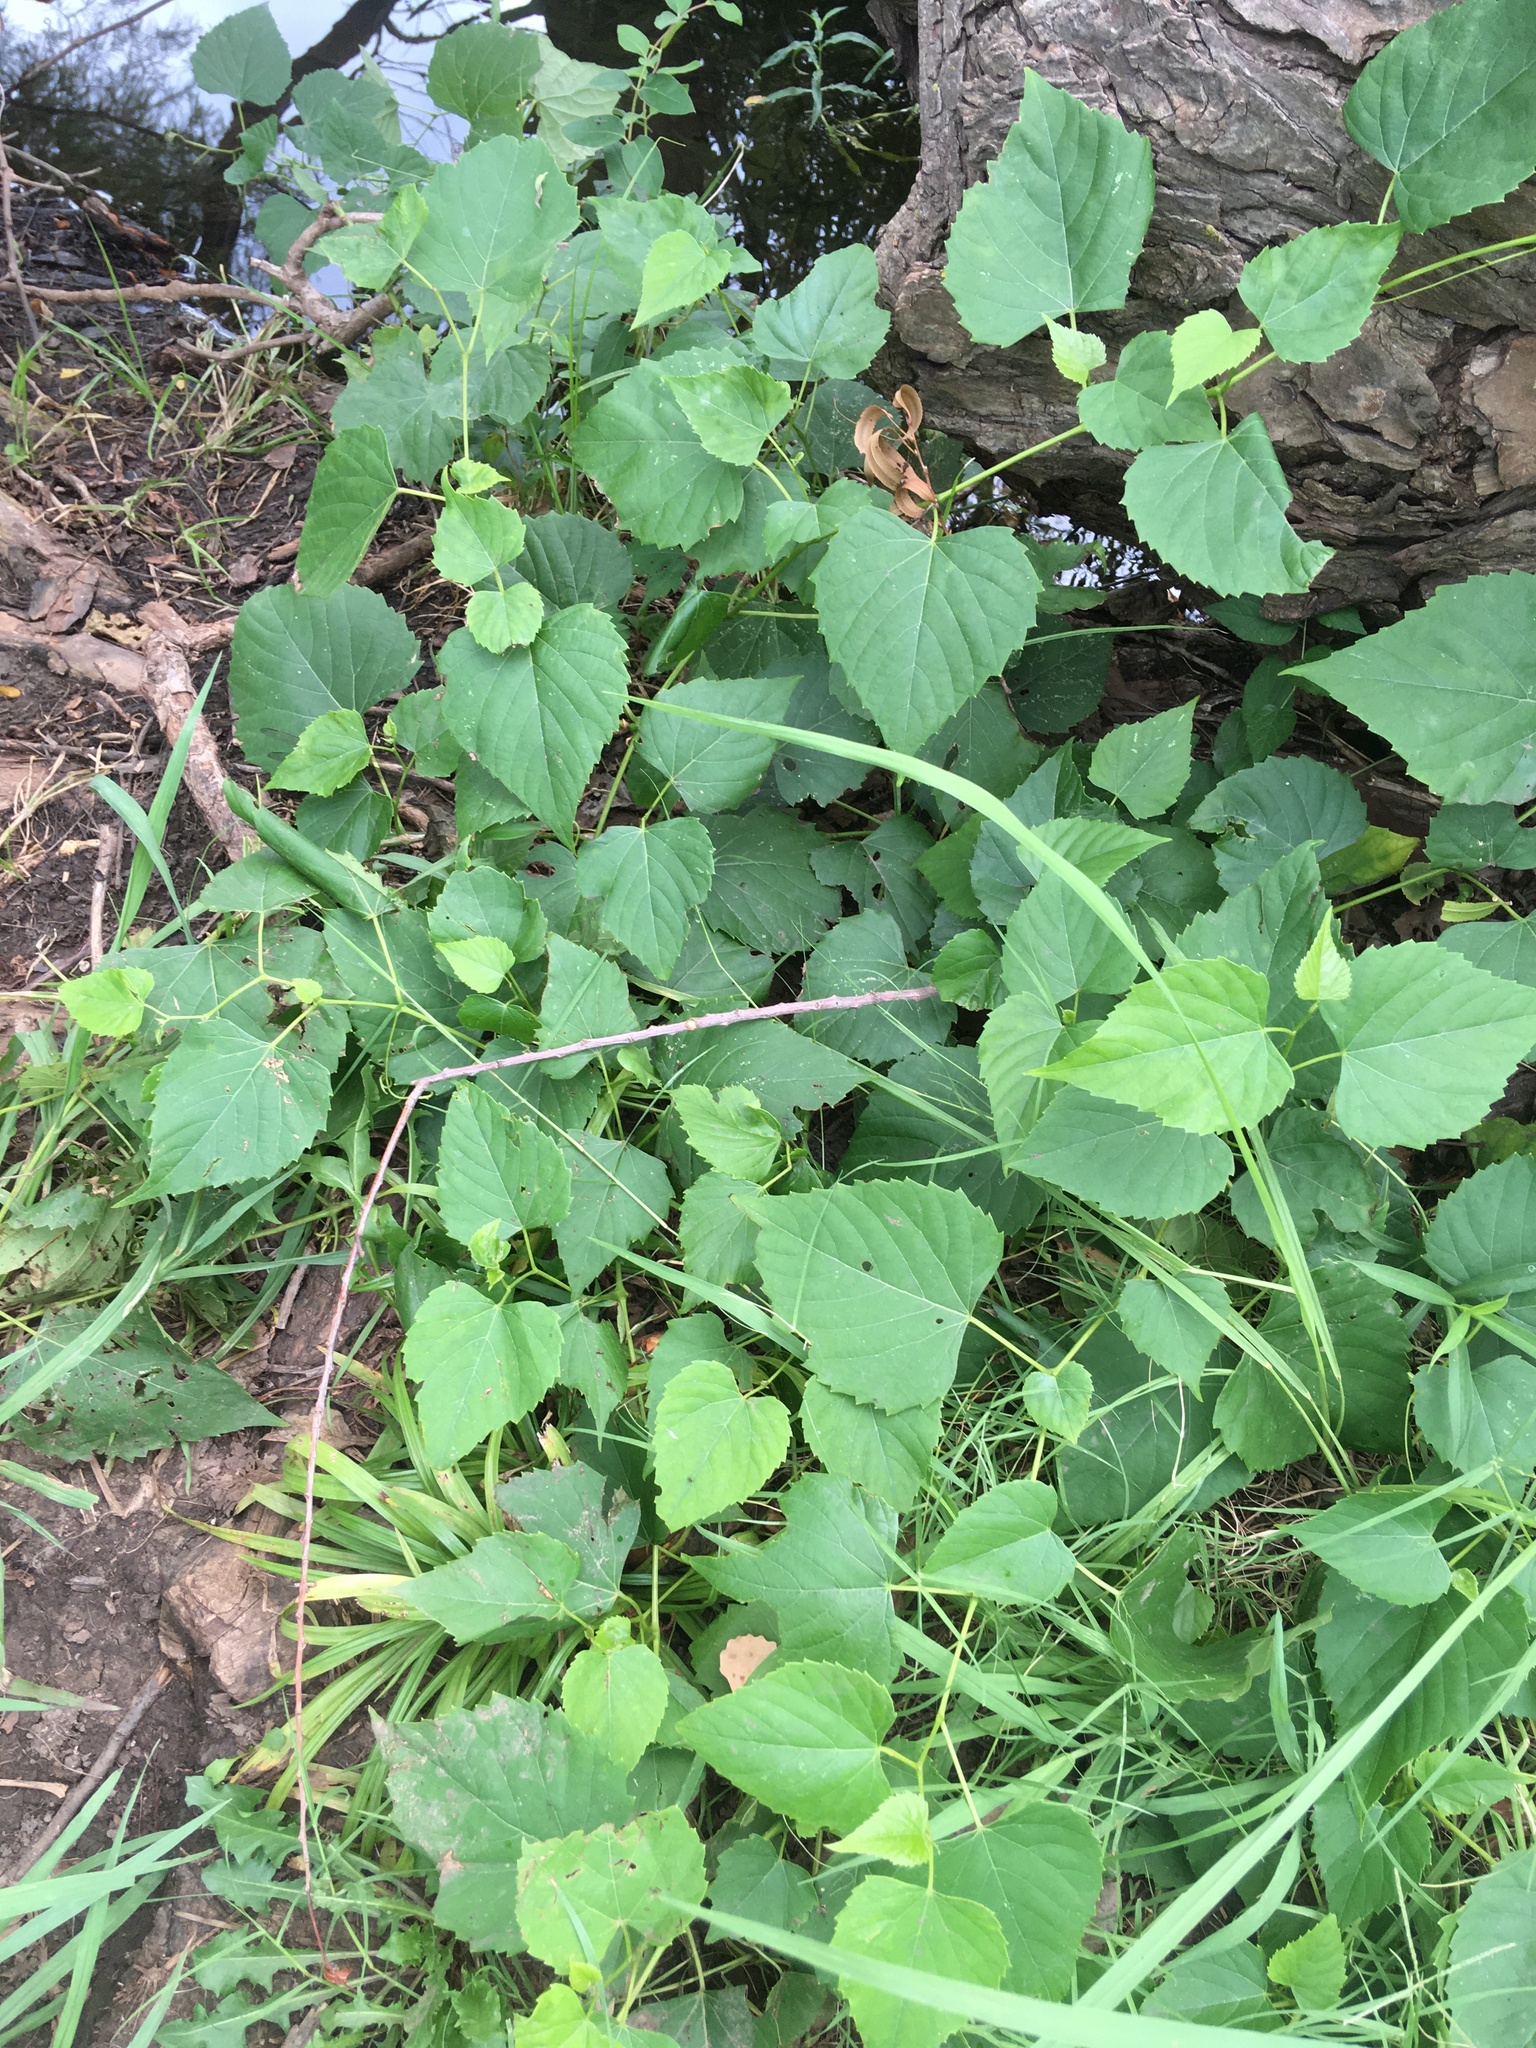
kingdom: Plantae
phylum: Tracheophyta
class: Magnoliopsida
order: Vitales
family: Vitaceae
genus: Ampelopsis
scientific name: Ampelopsis cordata
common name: Heart-leaf ampelopsis
